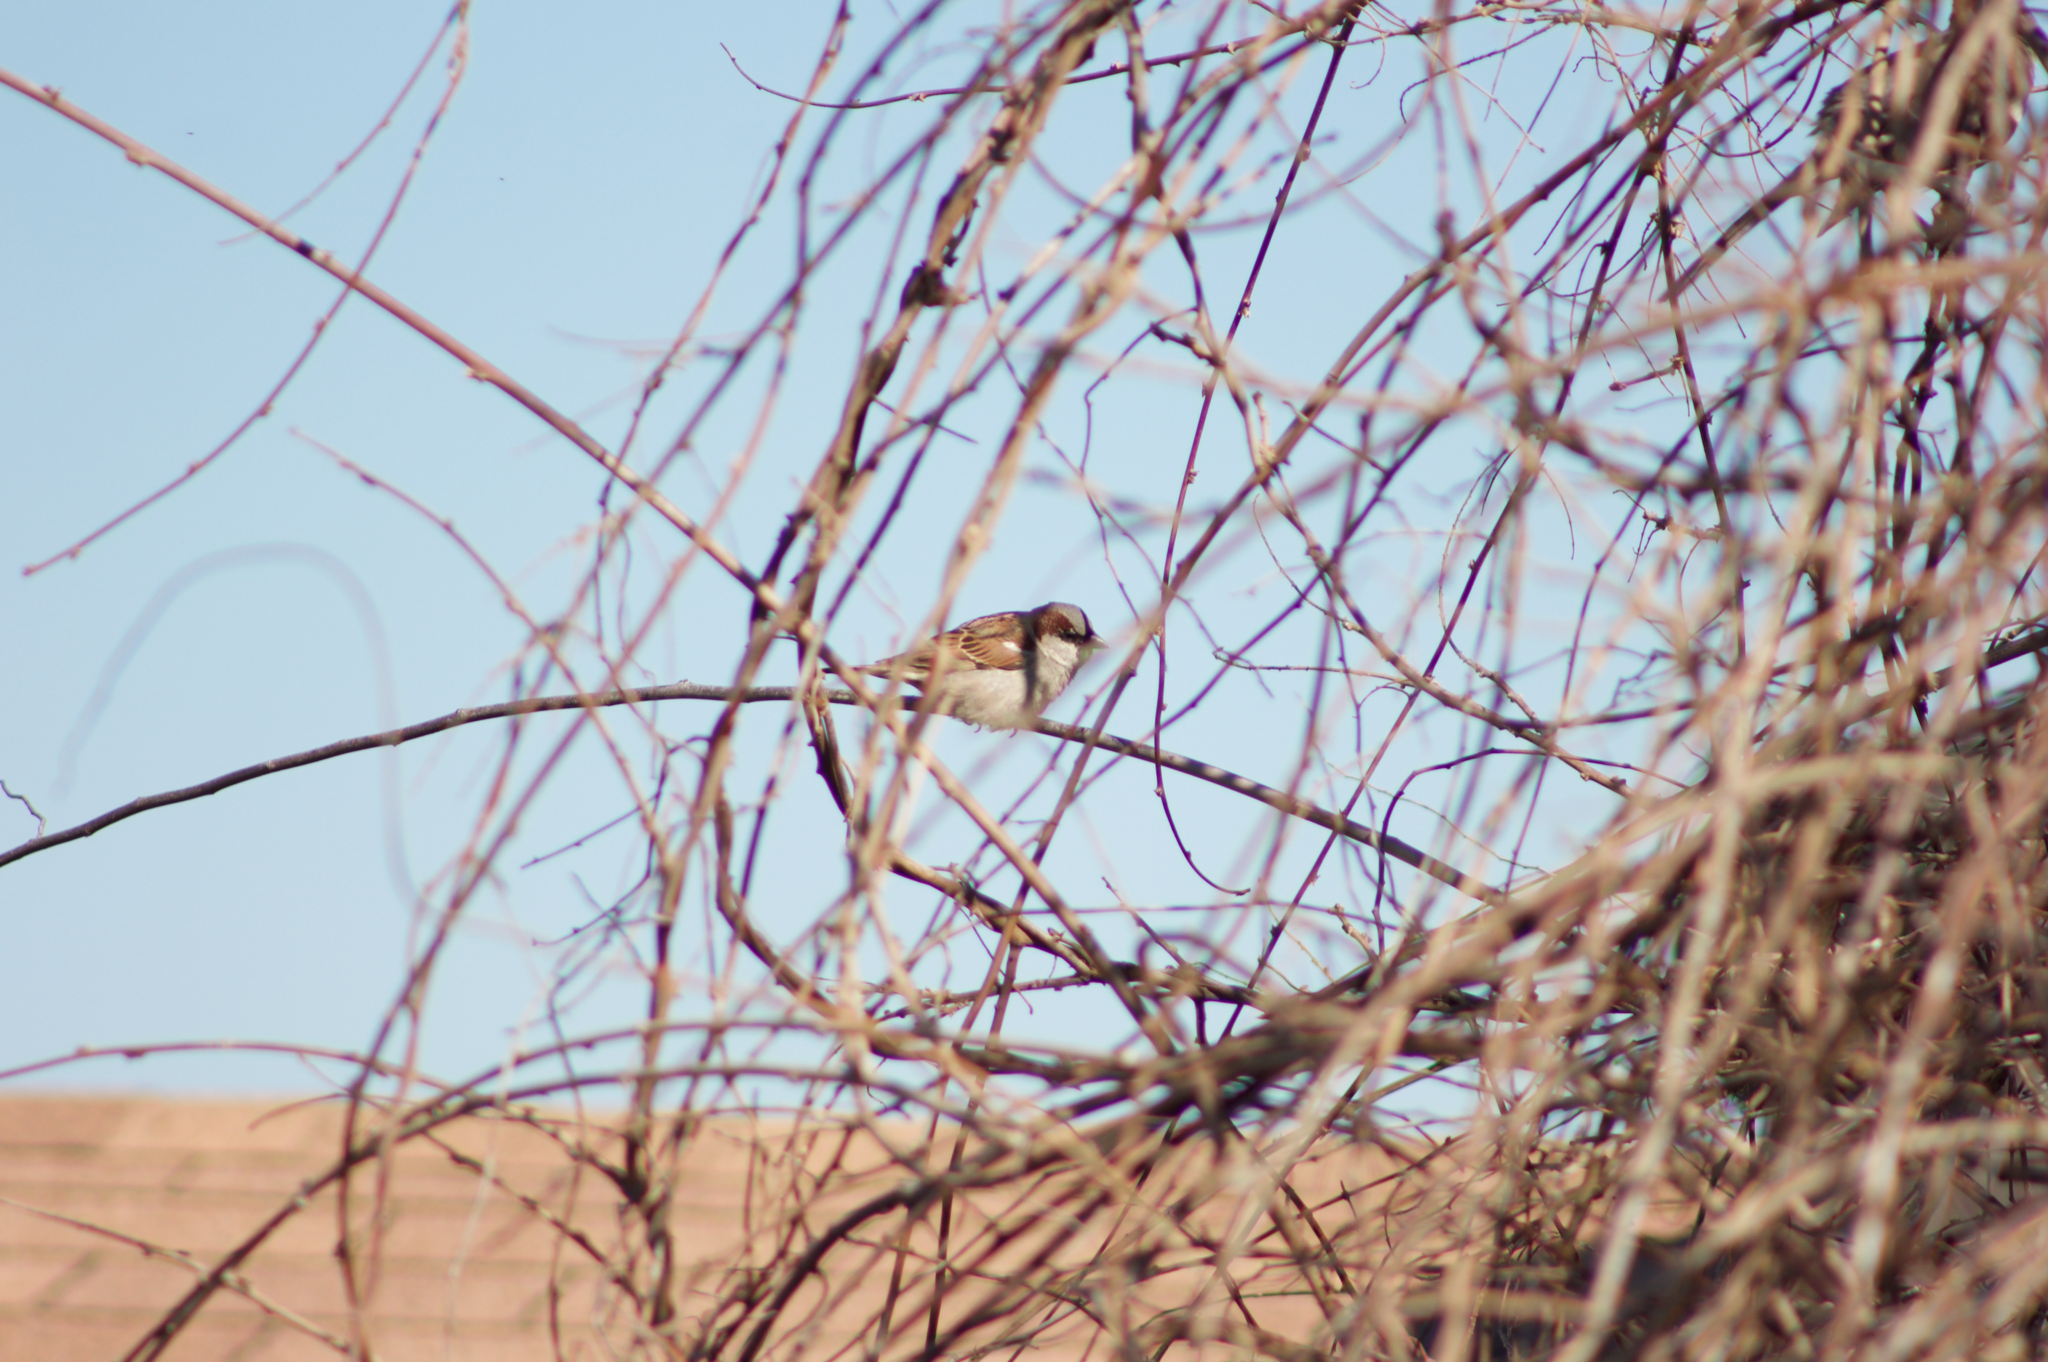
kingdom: Animalia
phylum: Chordata
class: Aves
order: Passeriformes
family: Passeridae
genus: Passer
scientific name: Passer domesticus
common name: House sparrow
